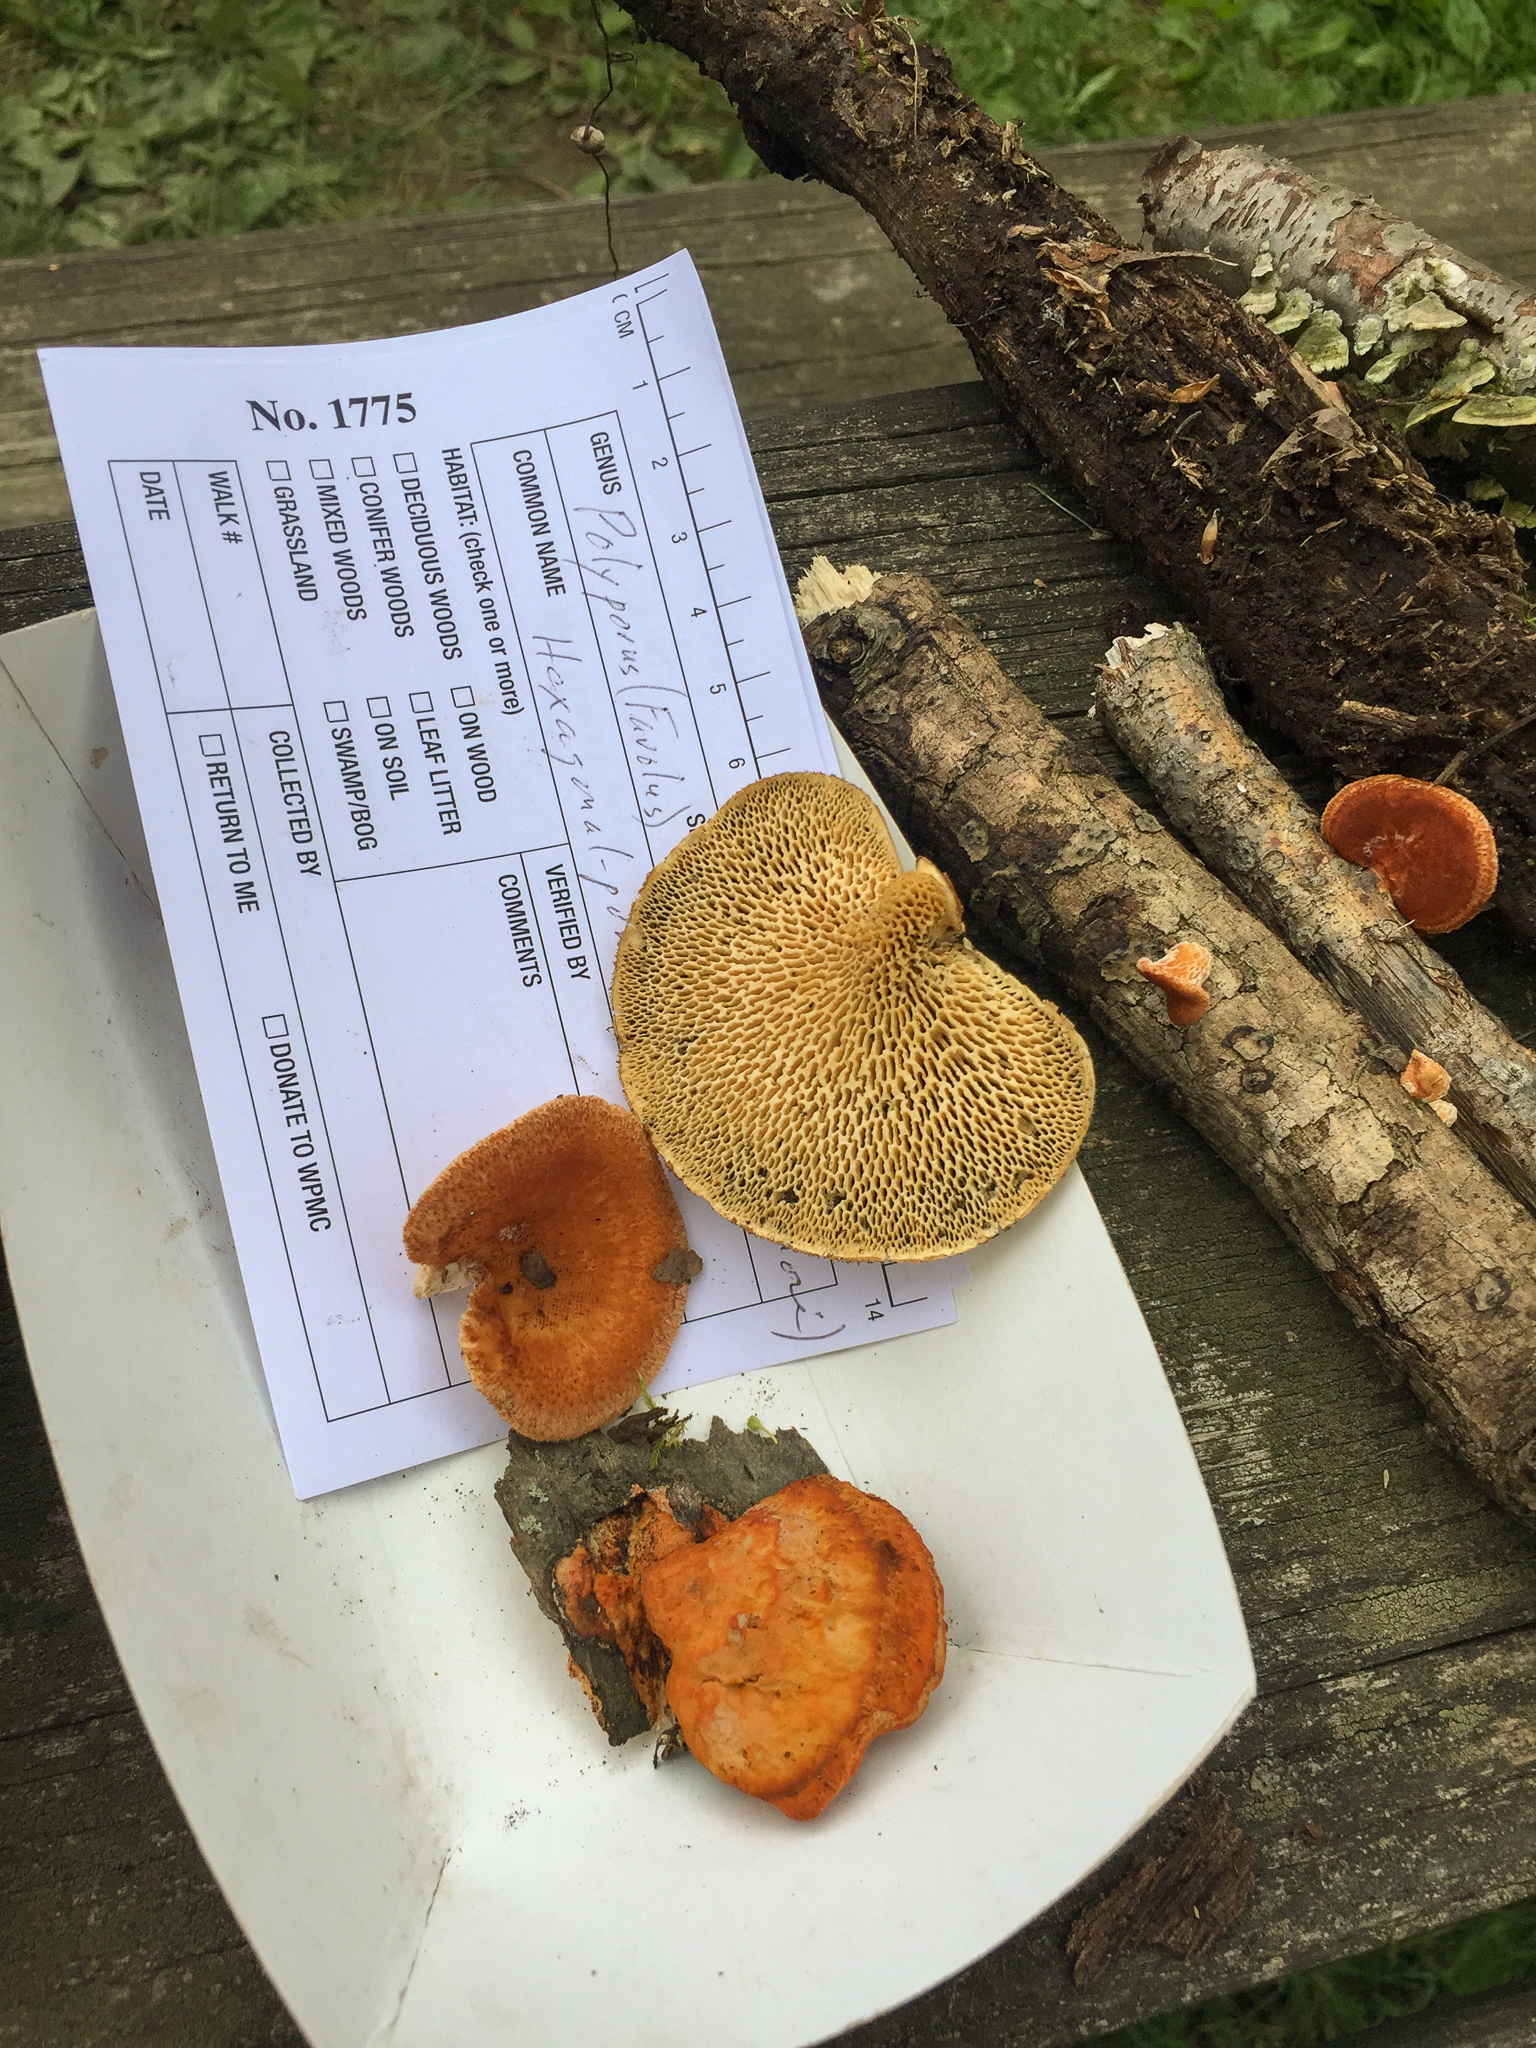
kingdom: Fungi
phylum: Basidiomycota
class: Agaricomycetes
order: Polyporales
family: Polyporaceae
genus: Neofavolus
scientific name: Neofavolus alveolaris
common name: Hexagonal-pored polypore
